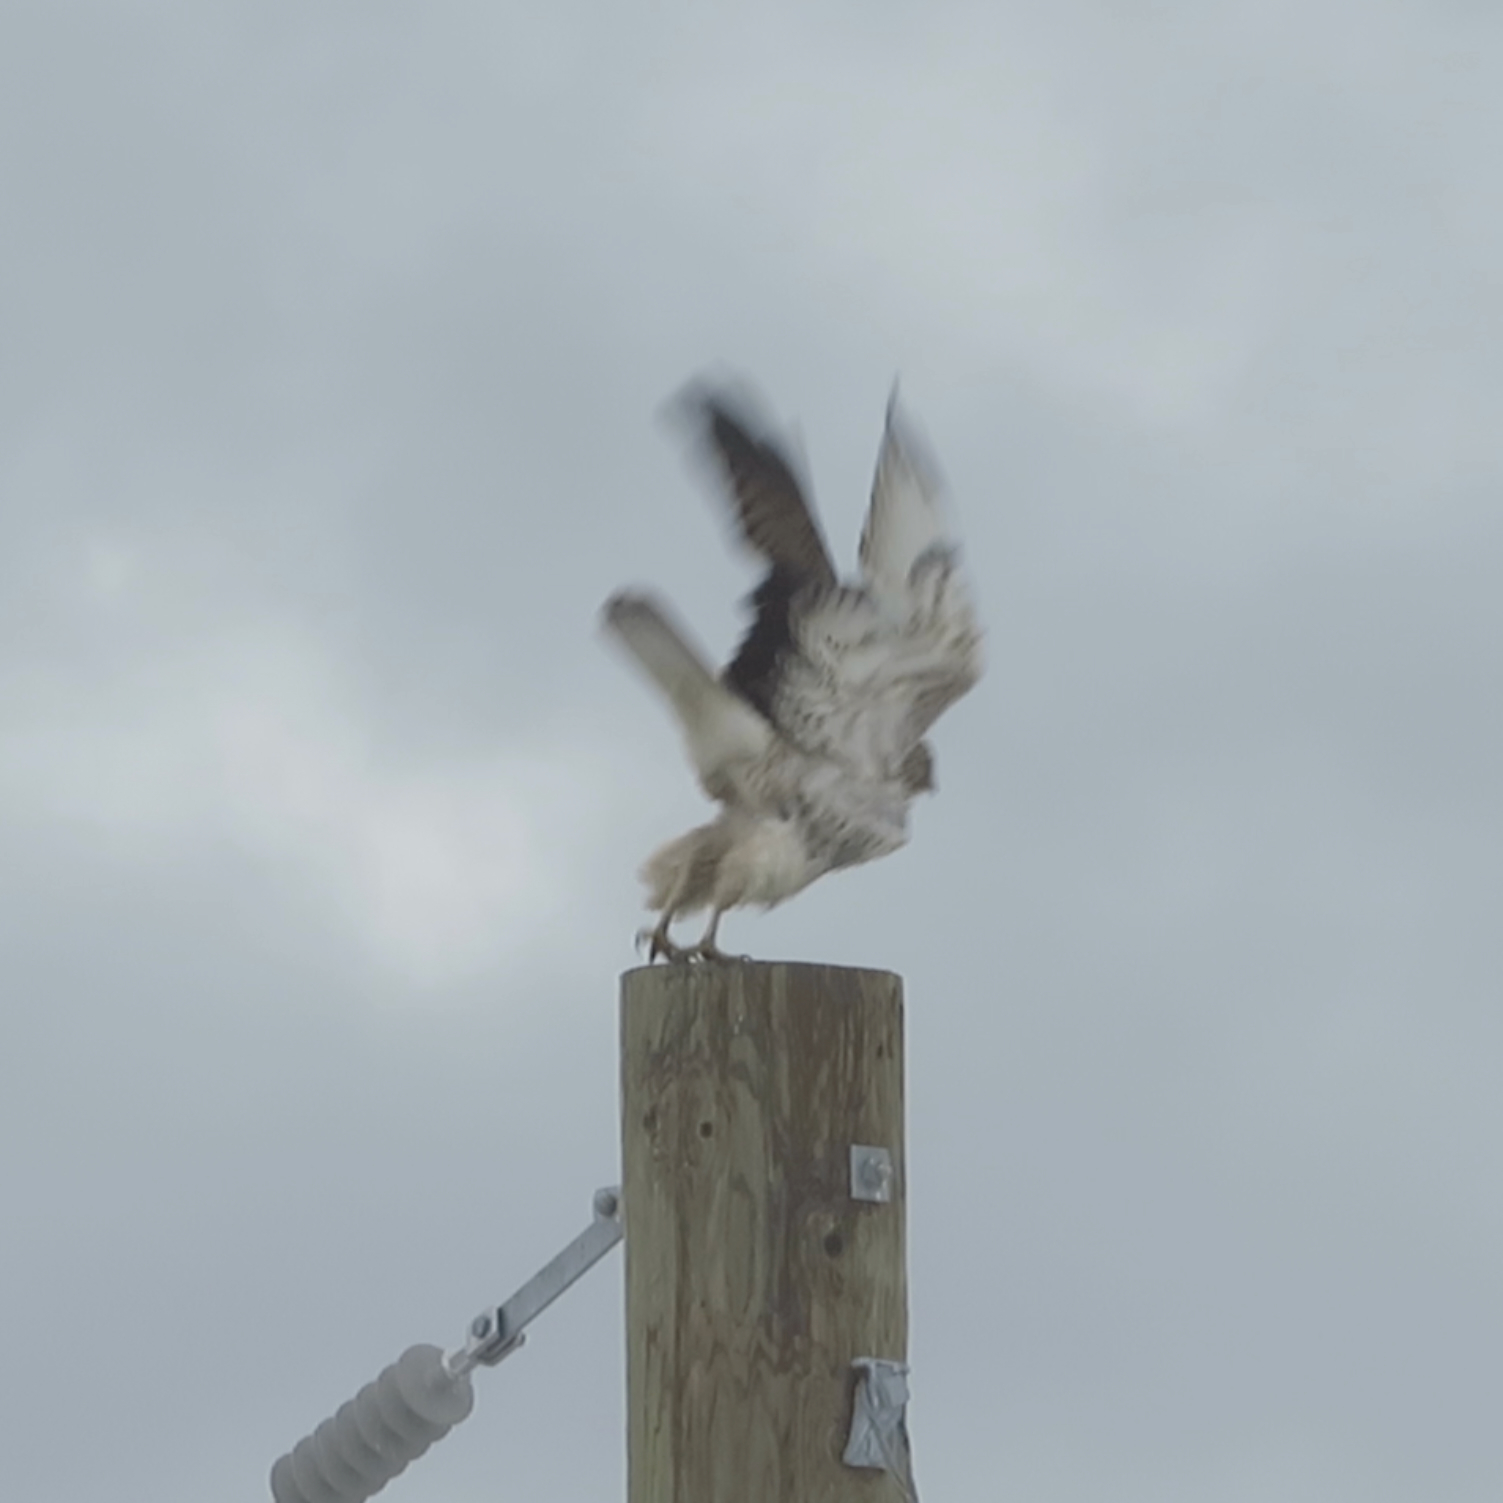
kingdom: Animalia
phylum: Chordata
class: Aves
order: Accipitriformes
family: Accipitridae
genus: Buteo
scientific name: Buteo jamaicensis
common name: Red-tailed hawk
